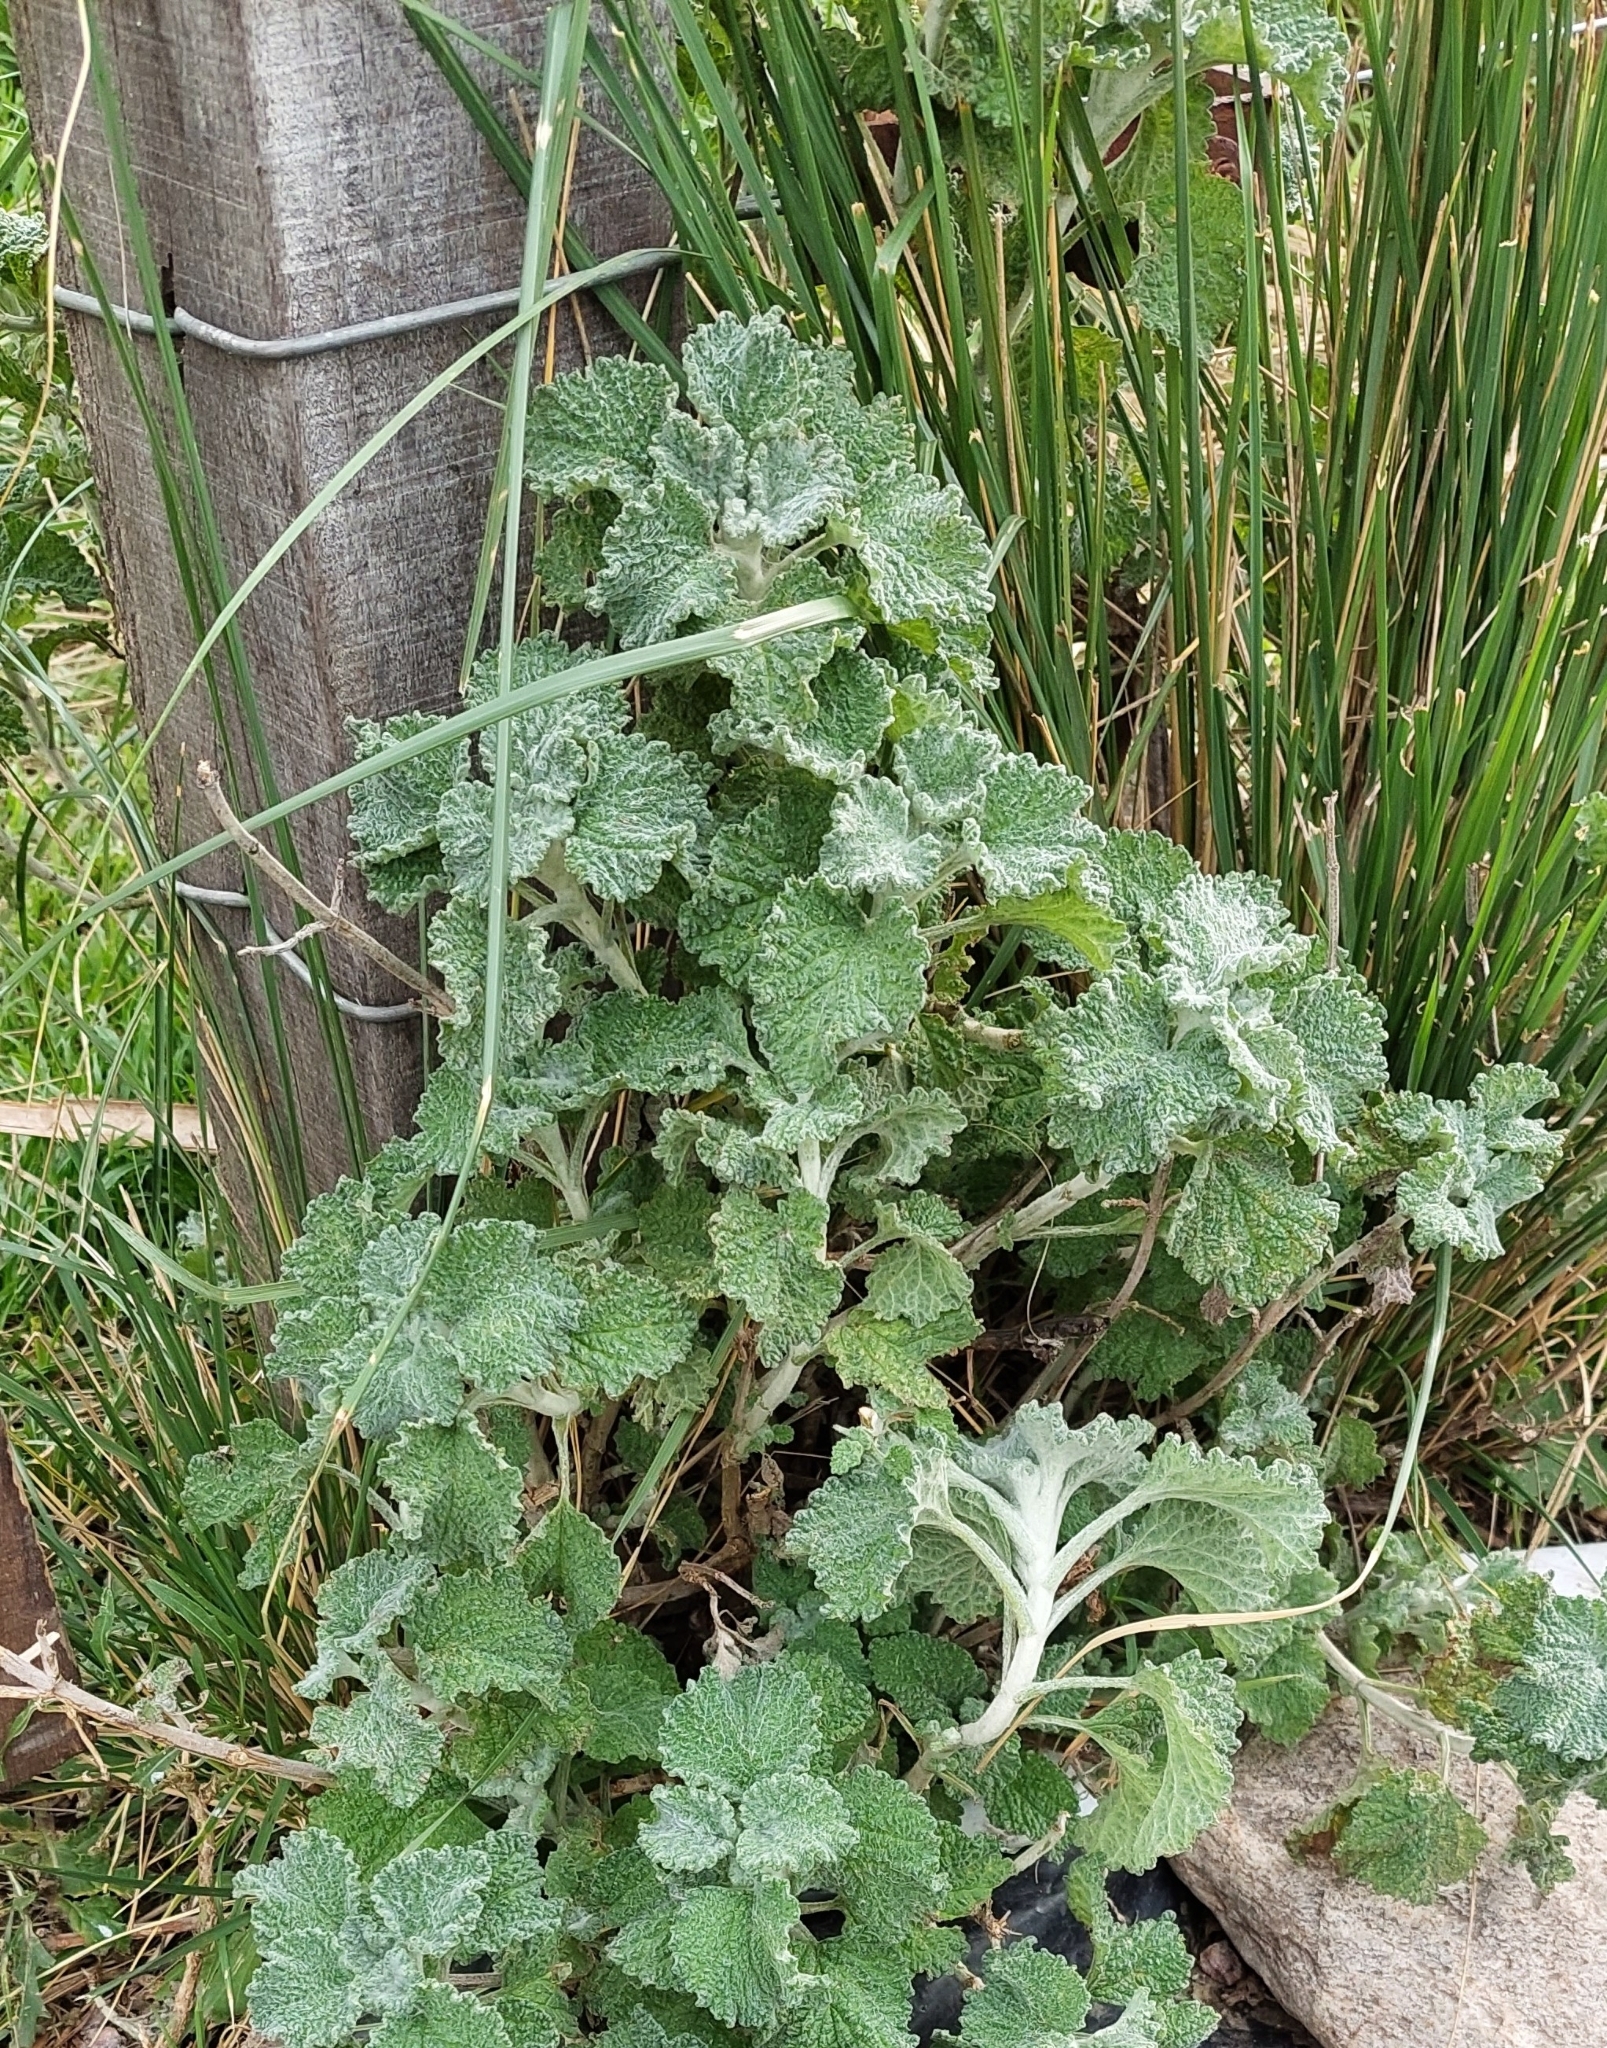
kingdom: Plantae
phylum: Tracheophyta
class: Magnoliopsida
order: Lamiales
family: Lamiaceae
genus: Marrubium
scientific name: Marrubium vulgare
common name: Horehound
